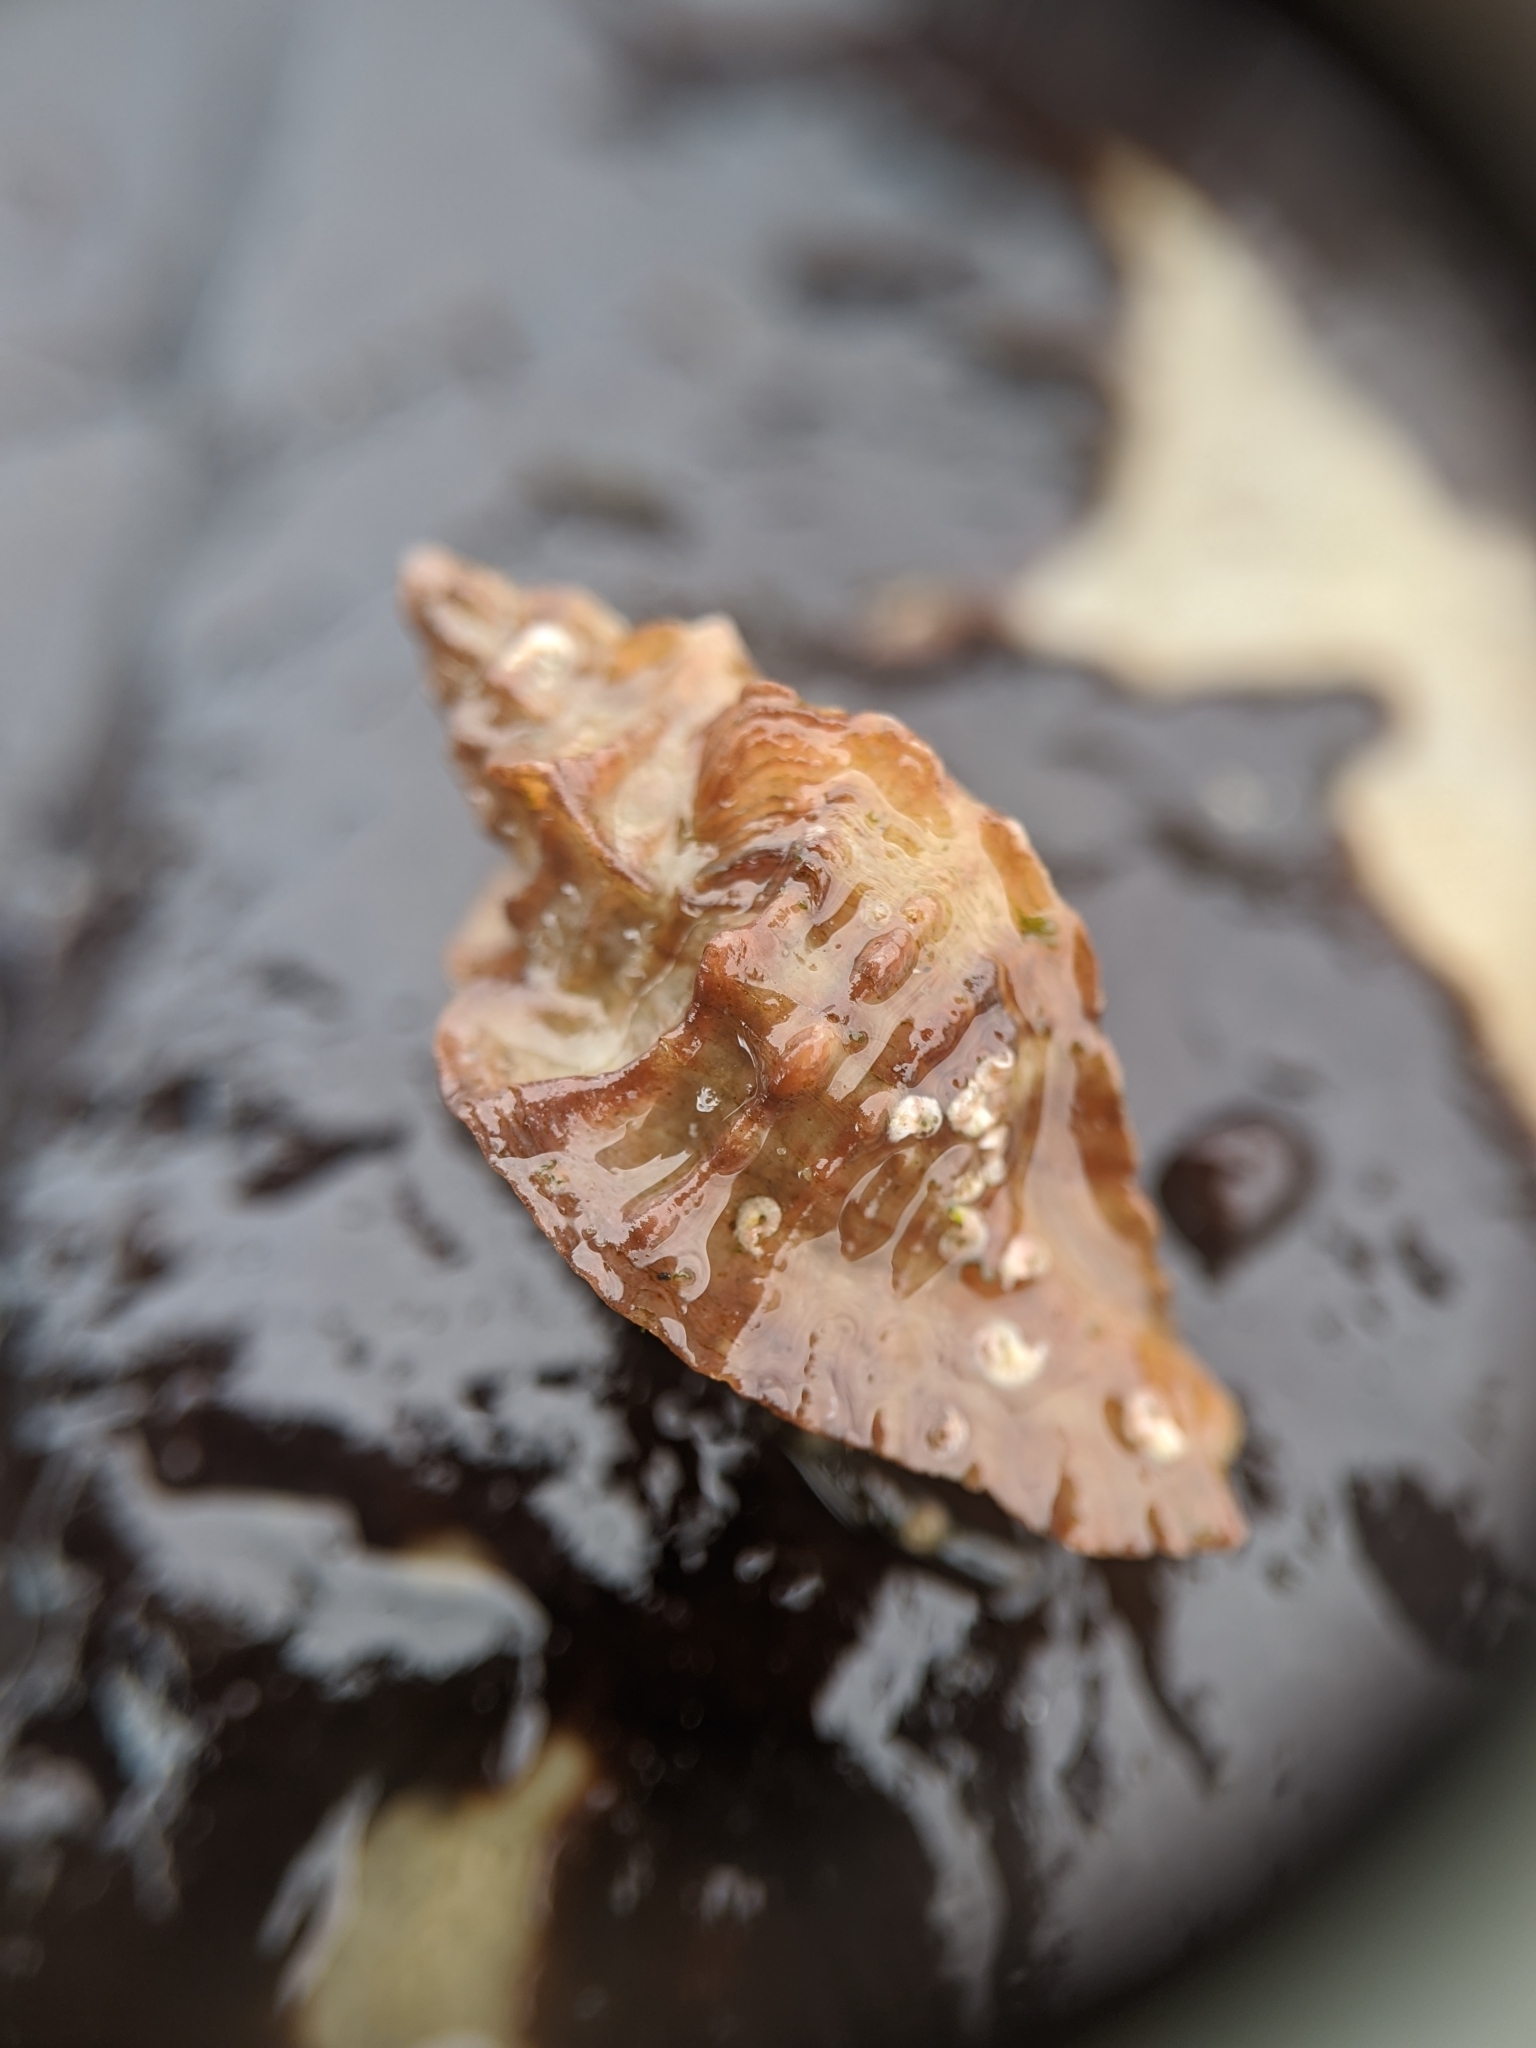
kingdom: Animalia
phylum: Mollusca
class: Gastropoda
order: Neogastropoda
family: Muricidae
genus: Ceratostoma
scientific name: Ceratostoma foliatum
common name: Foliate thorn purpura
